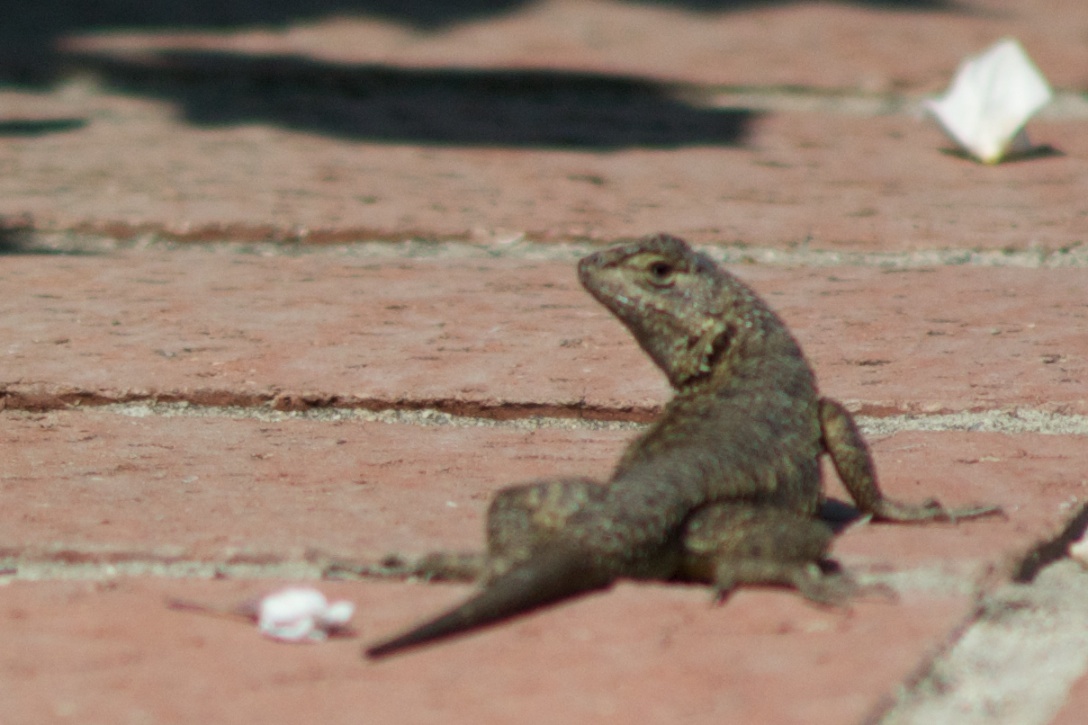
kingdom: Animalia
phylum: Chordata
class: Squamata
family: Phrynosomatidae
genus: Sceloporus
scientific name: Sceloporus occidentalis
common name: Western fence lizard
